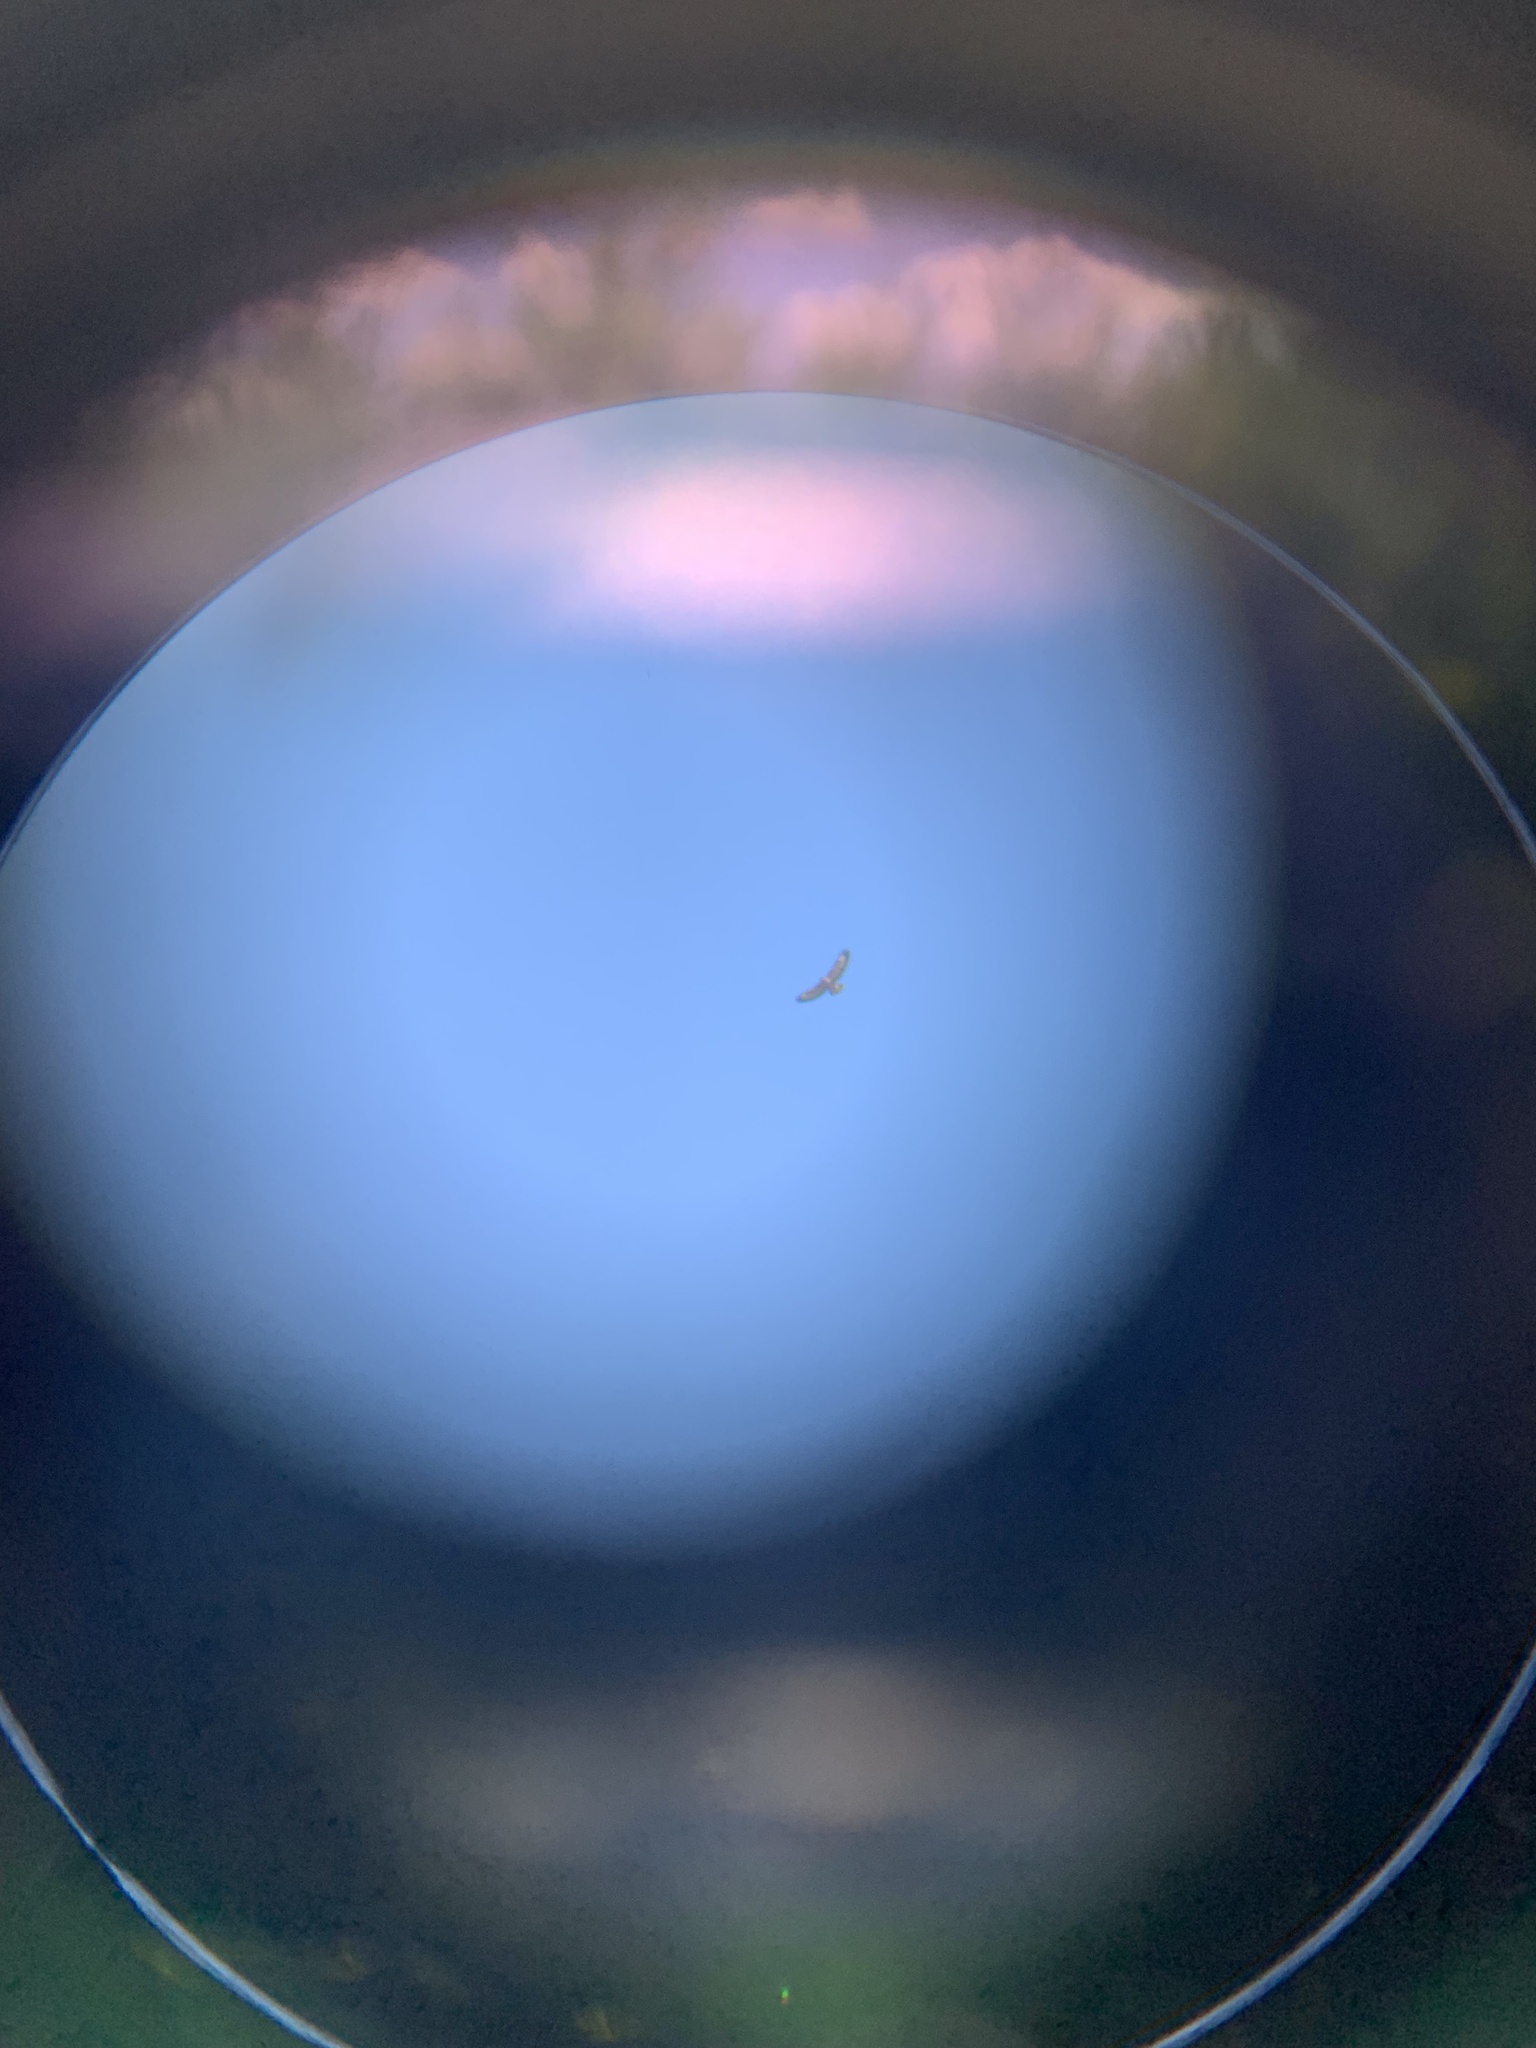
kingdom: Animalia
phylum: Chordata
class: Aves
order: Accipitriformes
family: Accipitridae
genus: Buteo
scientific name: Buteo buteo
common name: Common buzzard
